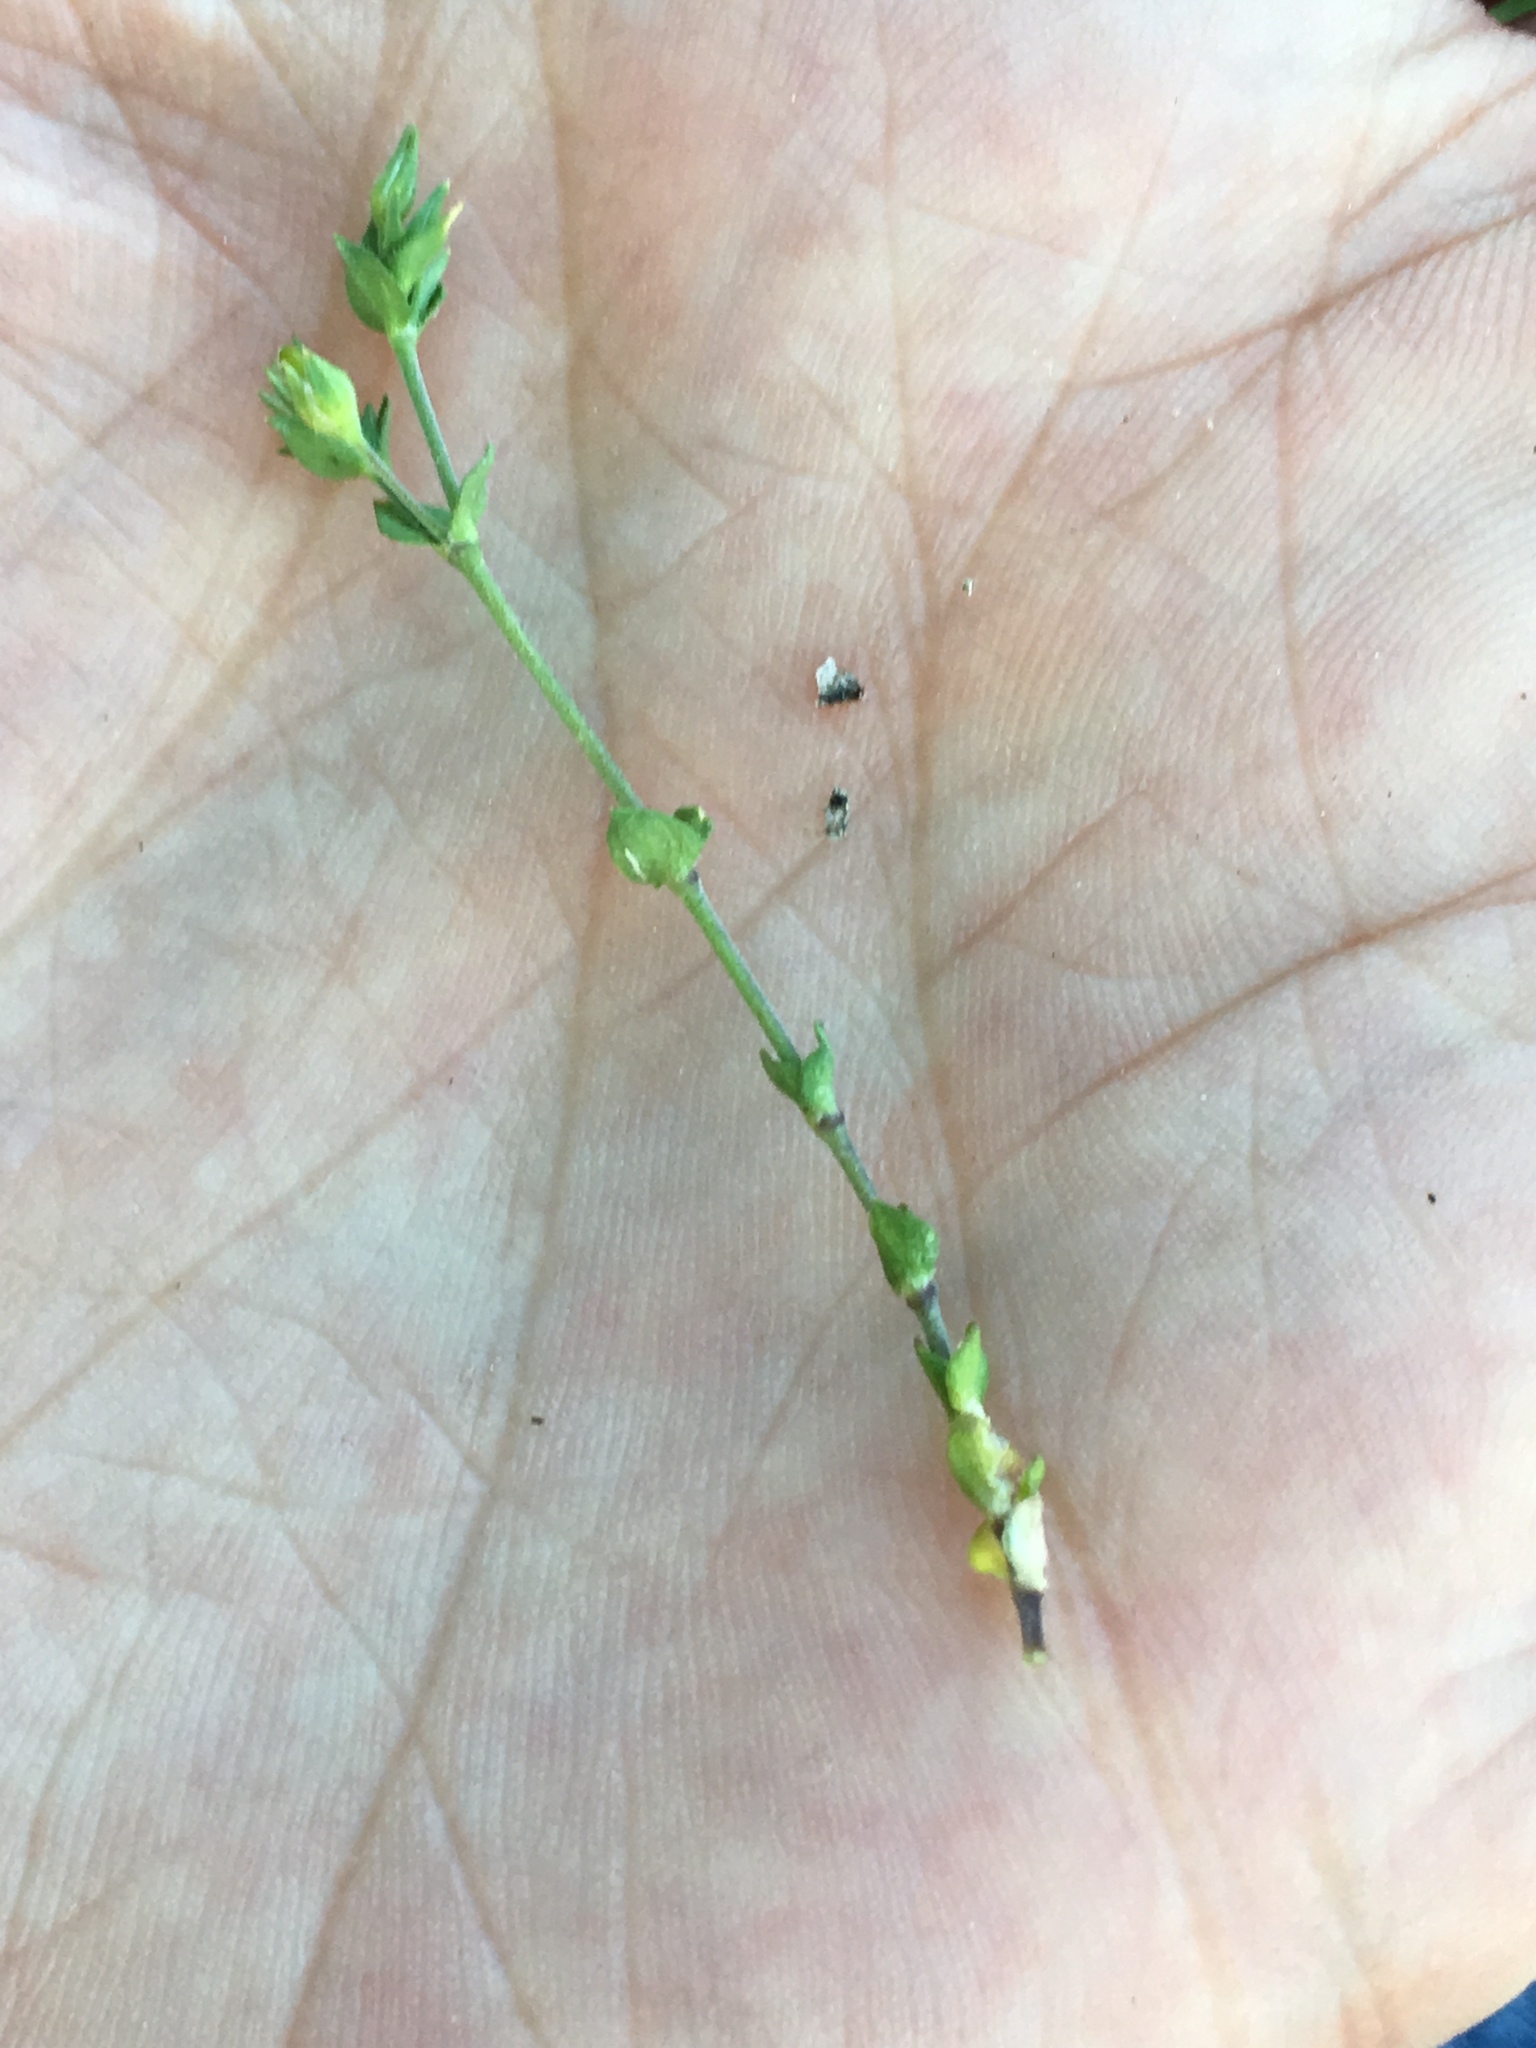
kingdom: Plantae
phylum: Tracheophyta
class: Magnoliopsida
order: Caryophyllales
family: Caryophyllaceae
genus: Arenaria
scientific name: Arenaria serpyllifolia
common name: Thyme-leaved sandwort
